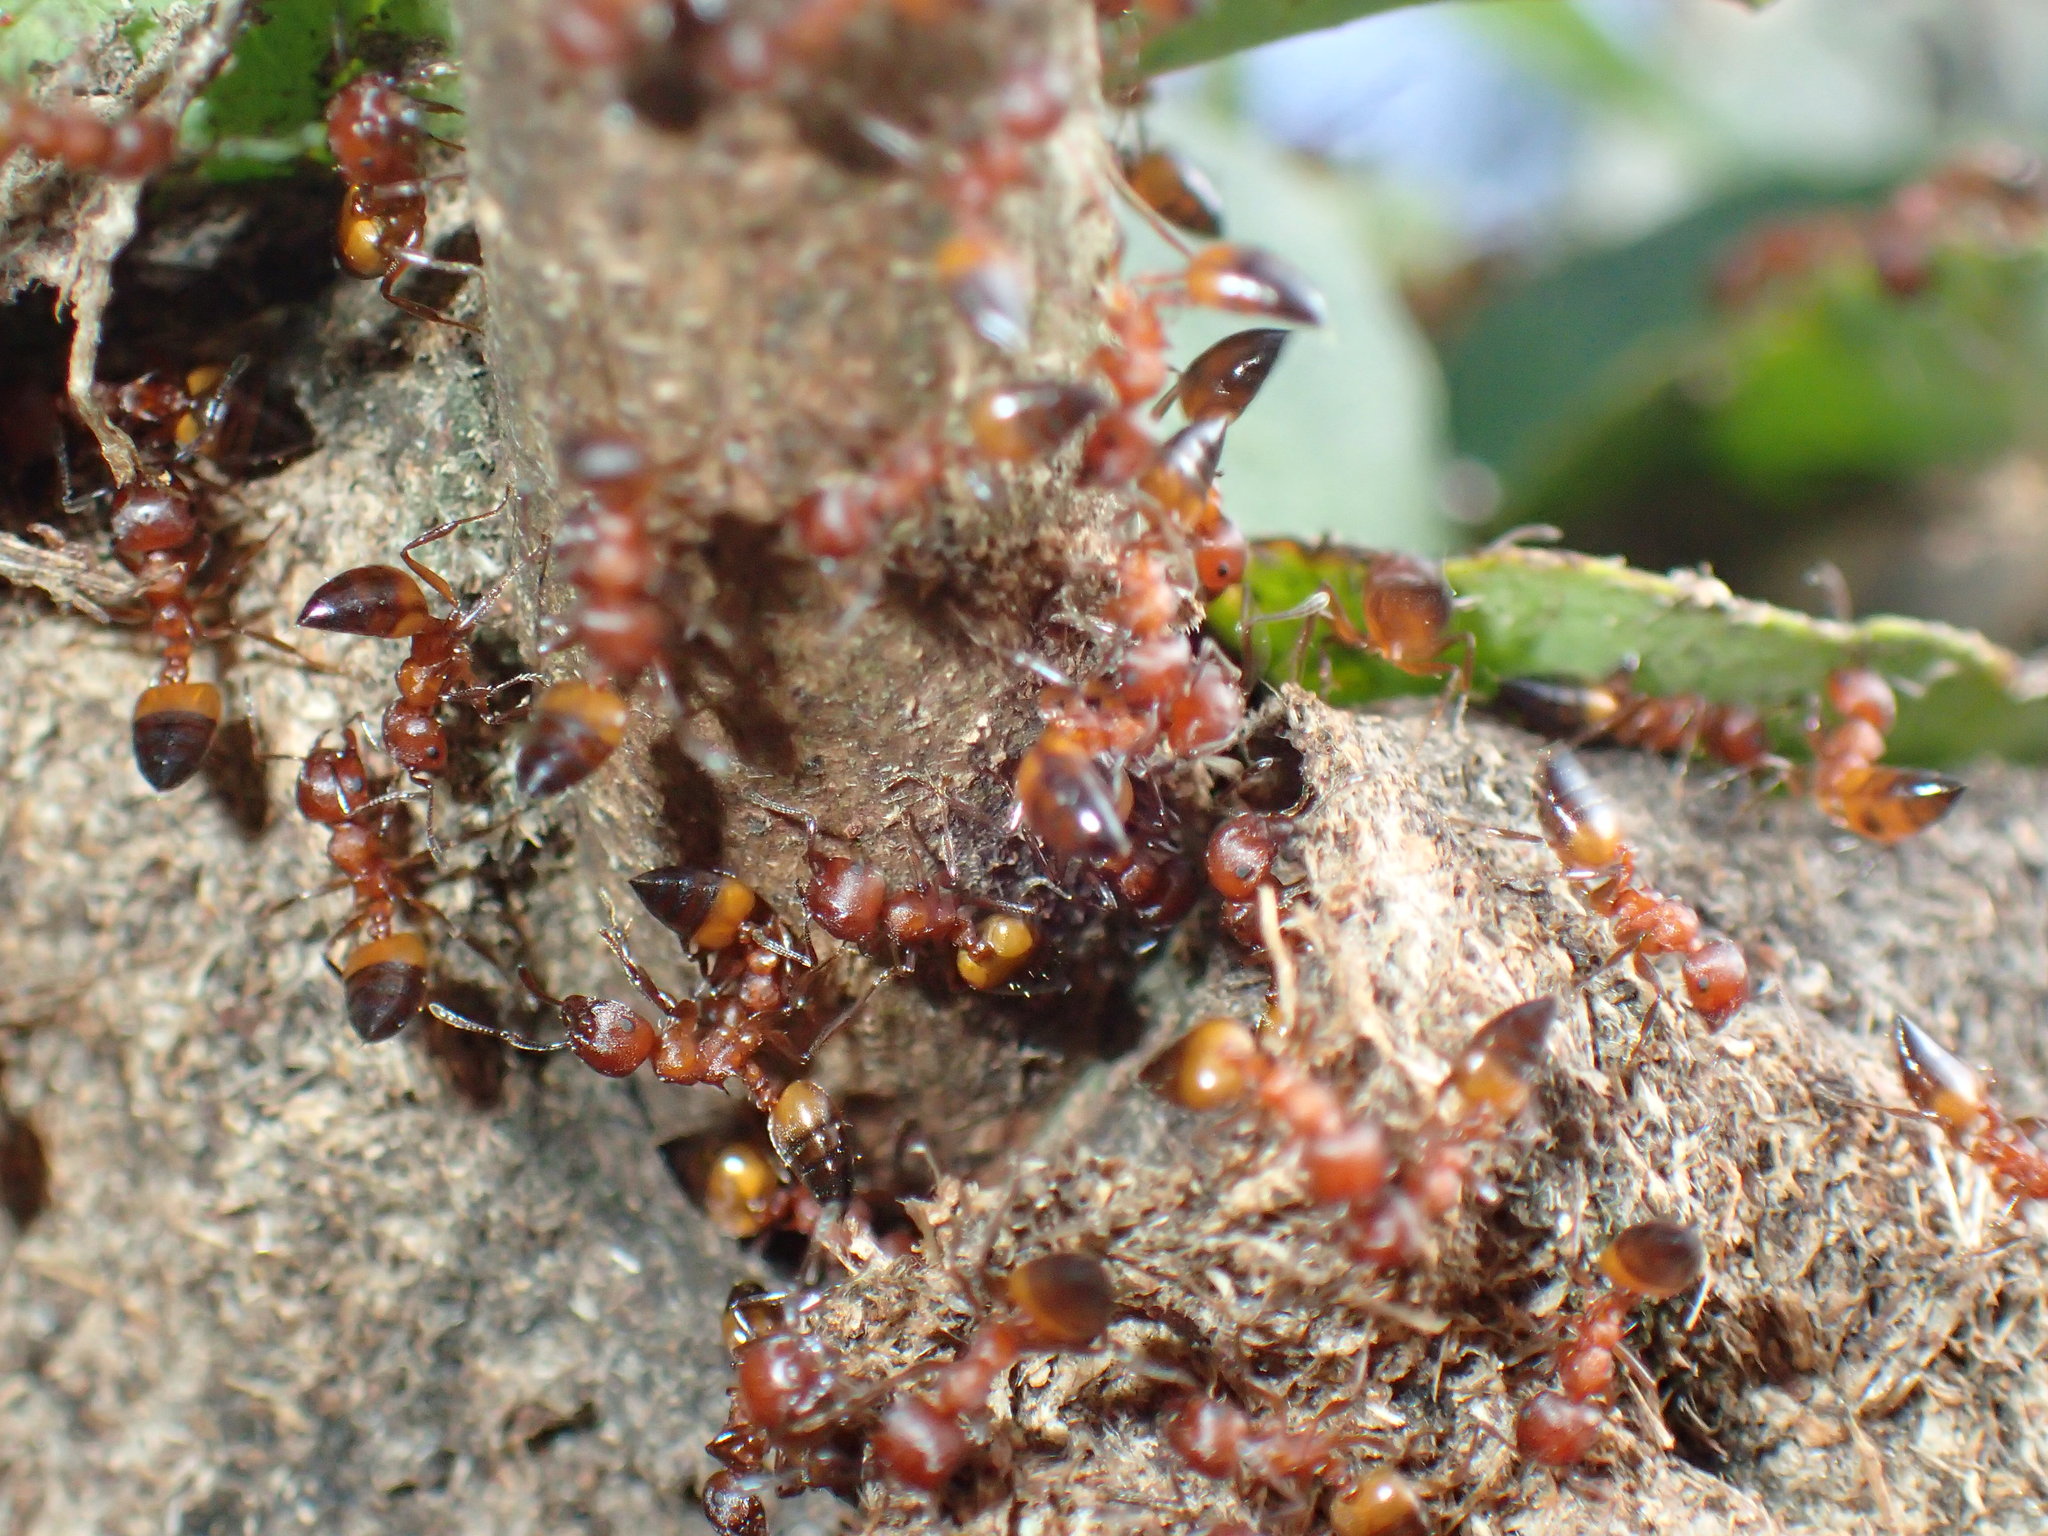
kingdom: Animalia
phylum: Arthropoda
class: Insecta
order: Hymenoptera
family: Formicidae
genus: Crematogaster
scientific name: Crematogaster castanea
